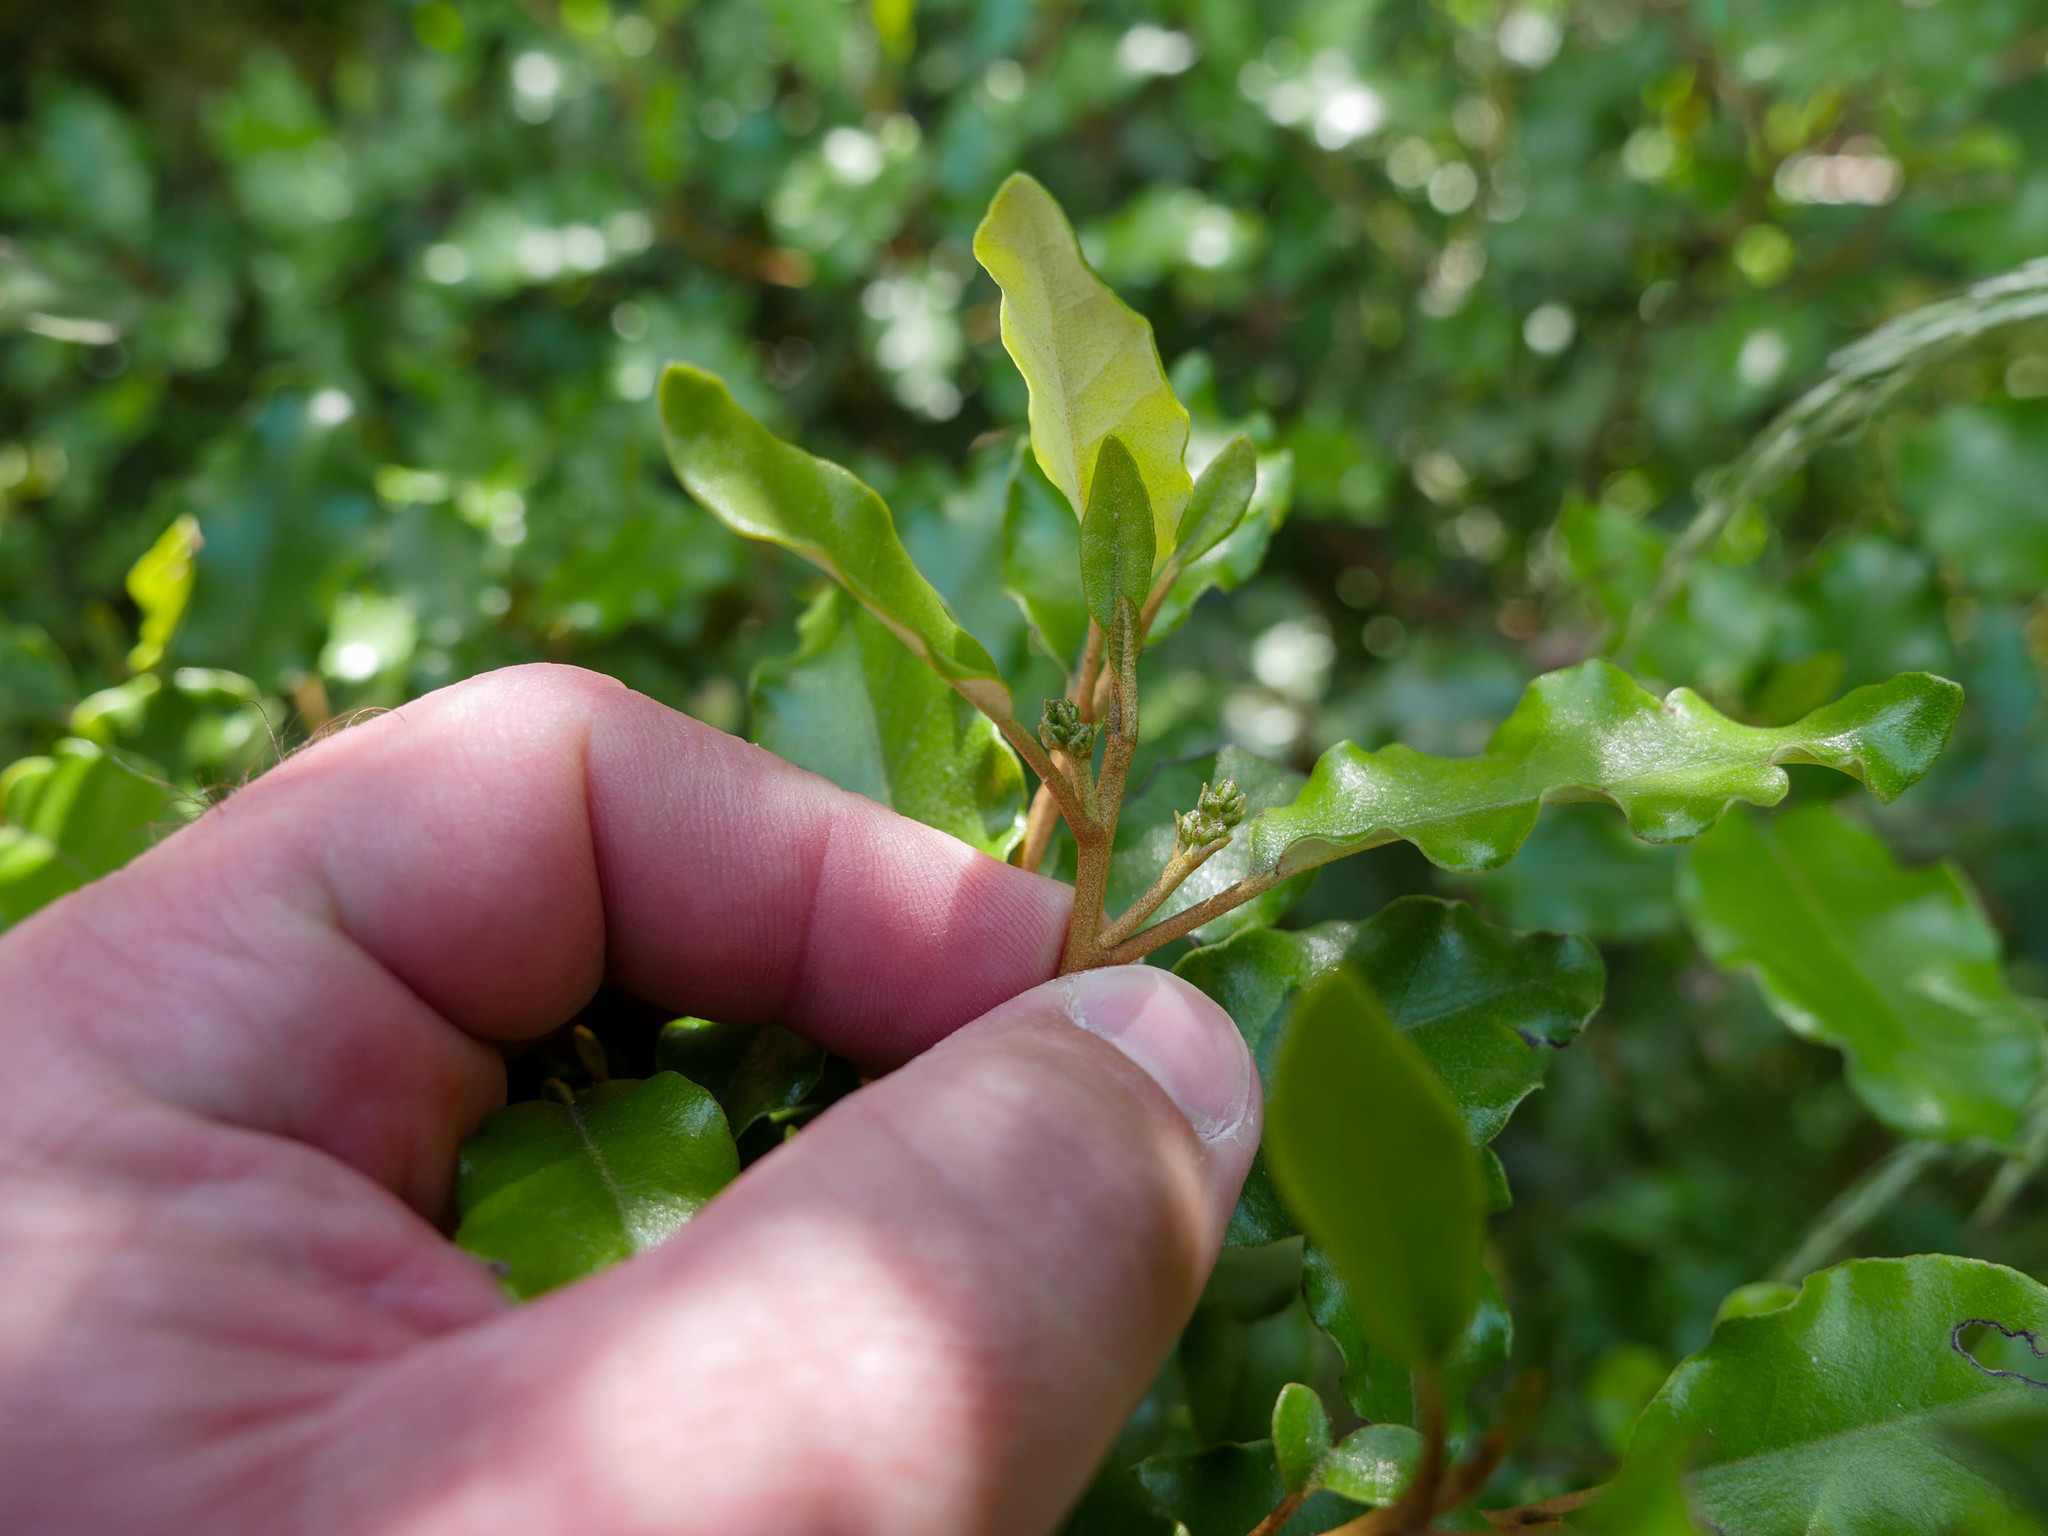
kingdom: Plantae
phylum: Tracheophyta
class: Magnoliopsida
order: Asterales
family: Asteraceae
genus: Olearia
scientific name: Olearia paniculata
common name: Akiraho
